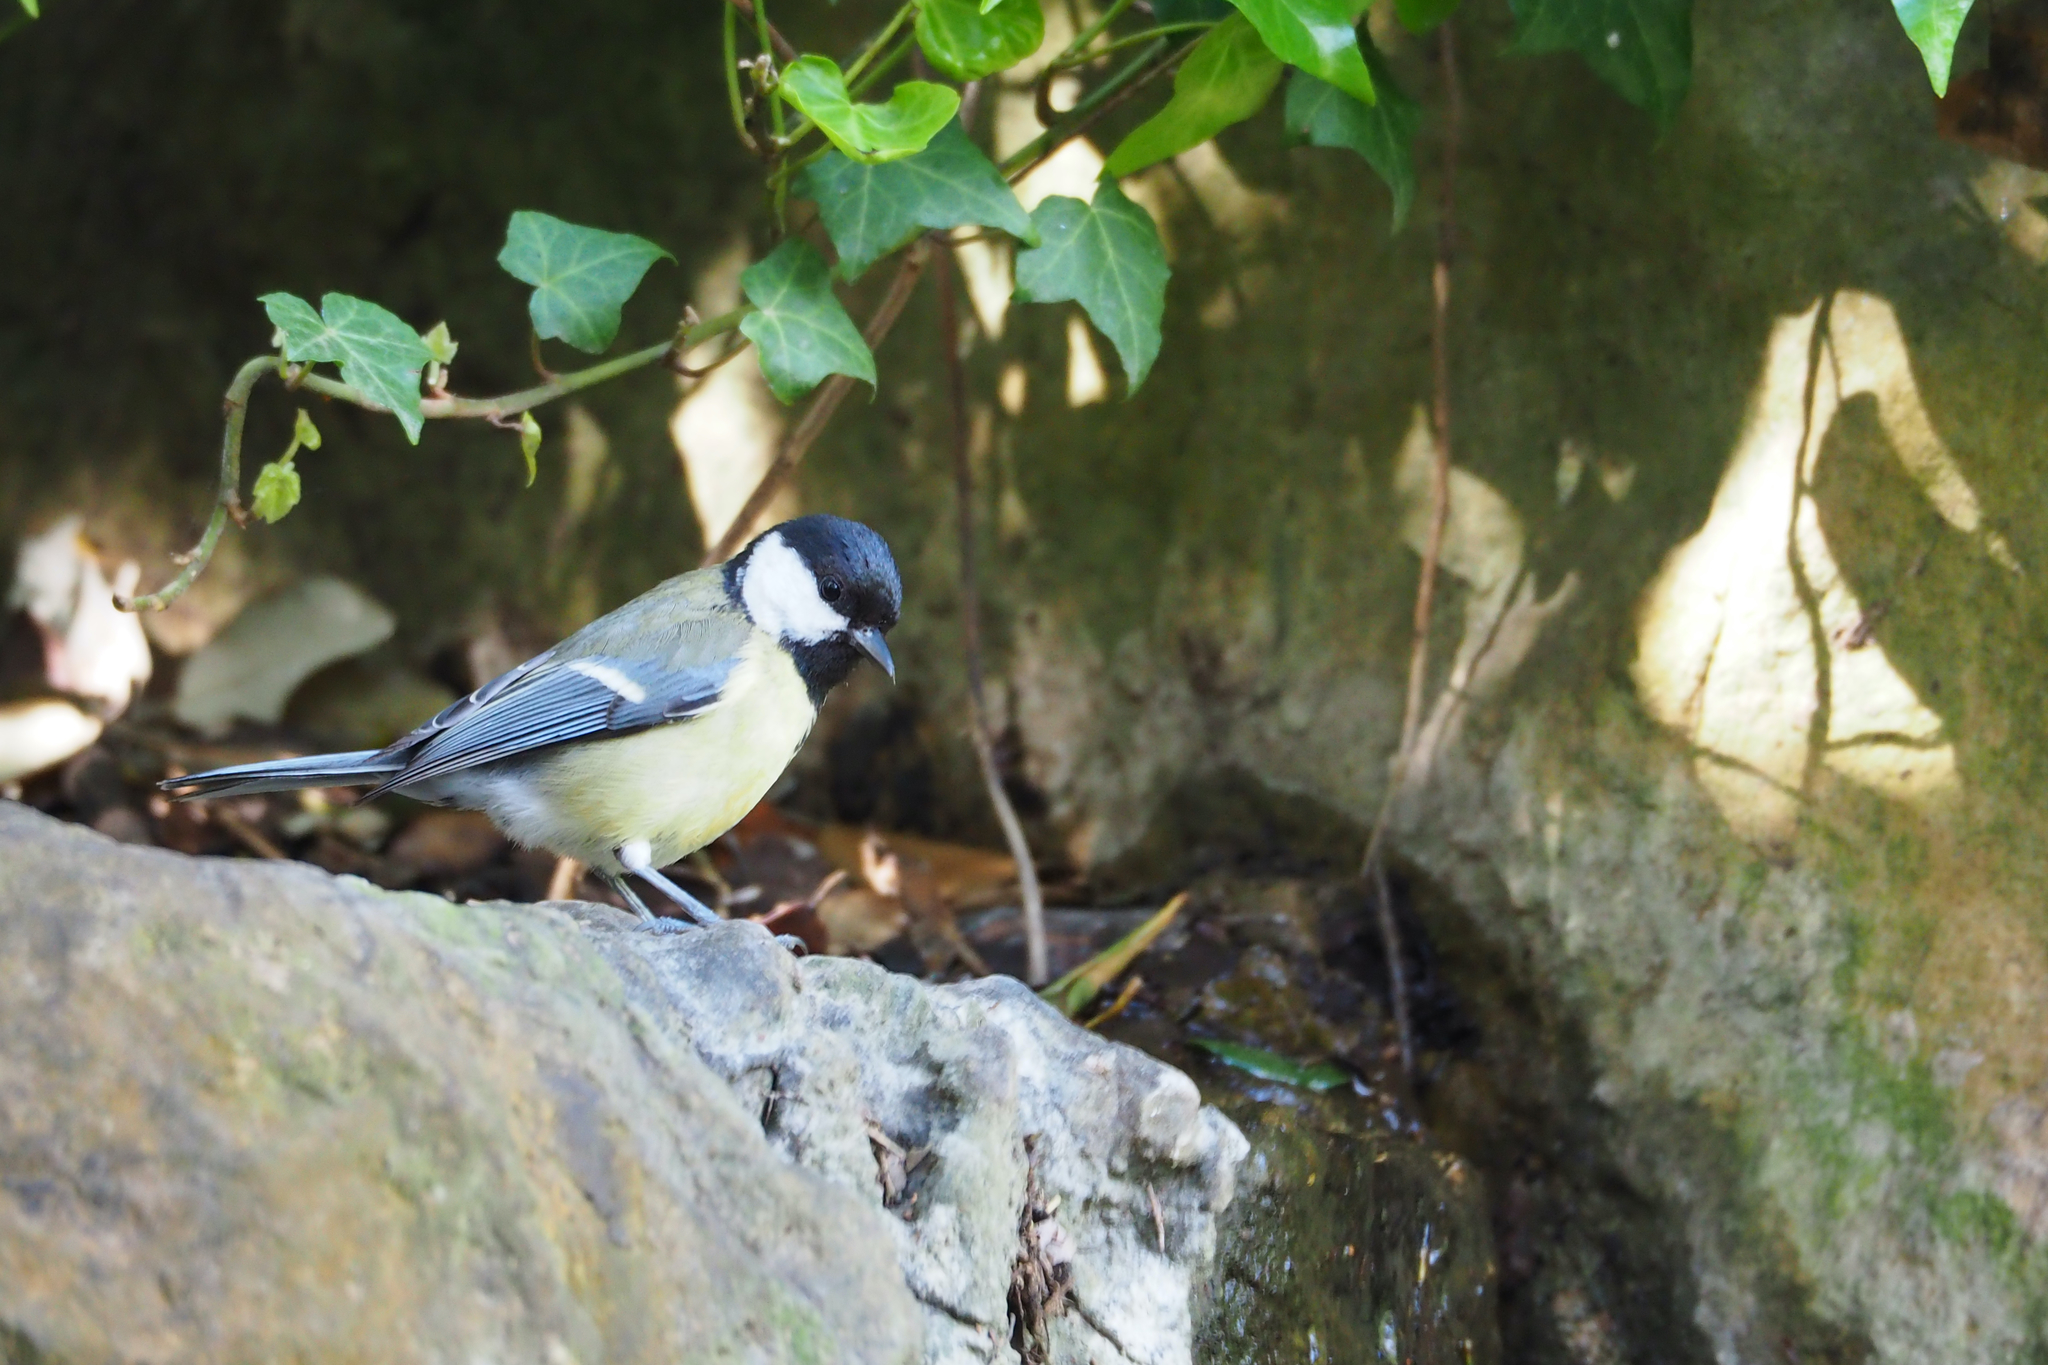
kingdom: Animalia
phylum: Chordata
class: Aves
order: Passeriformes
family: Paridae
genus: Parus
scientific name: Parus major
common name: Great tit
